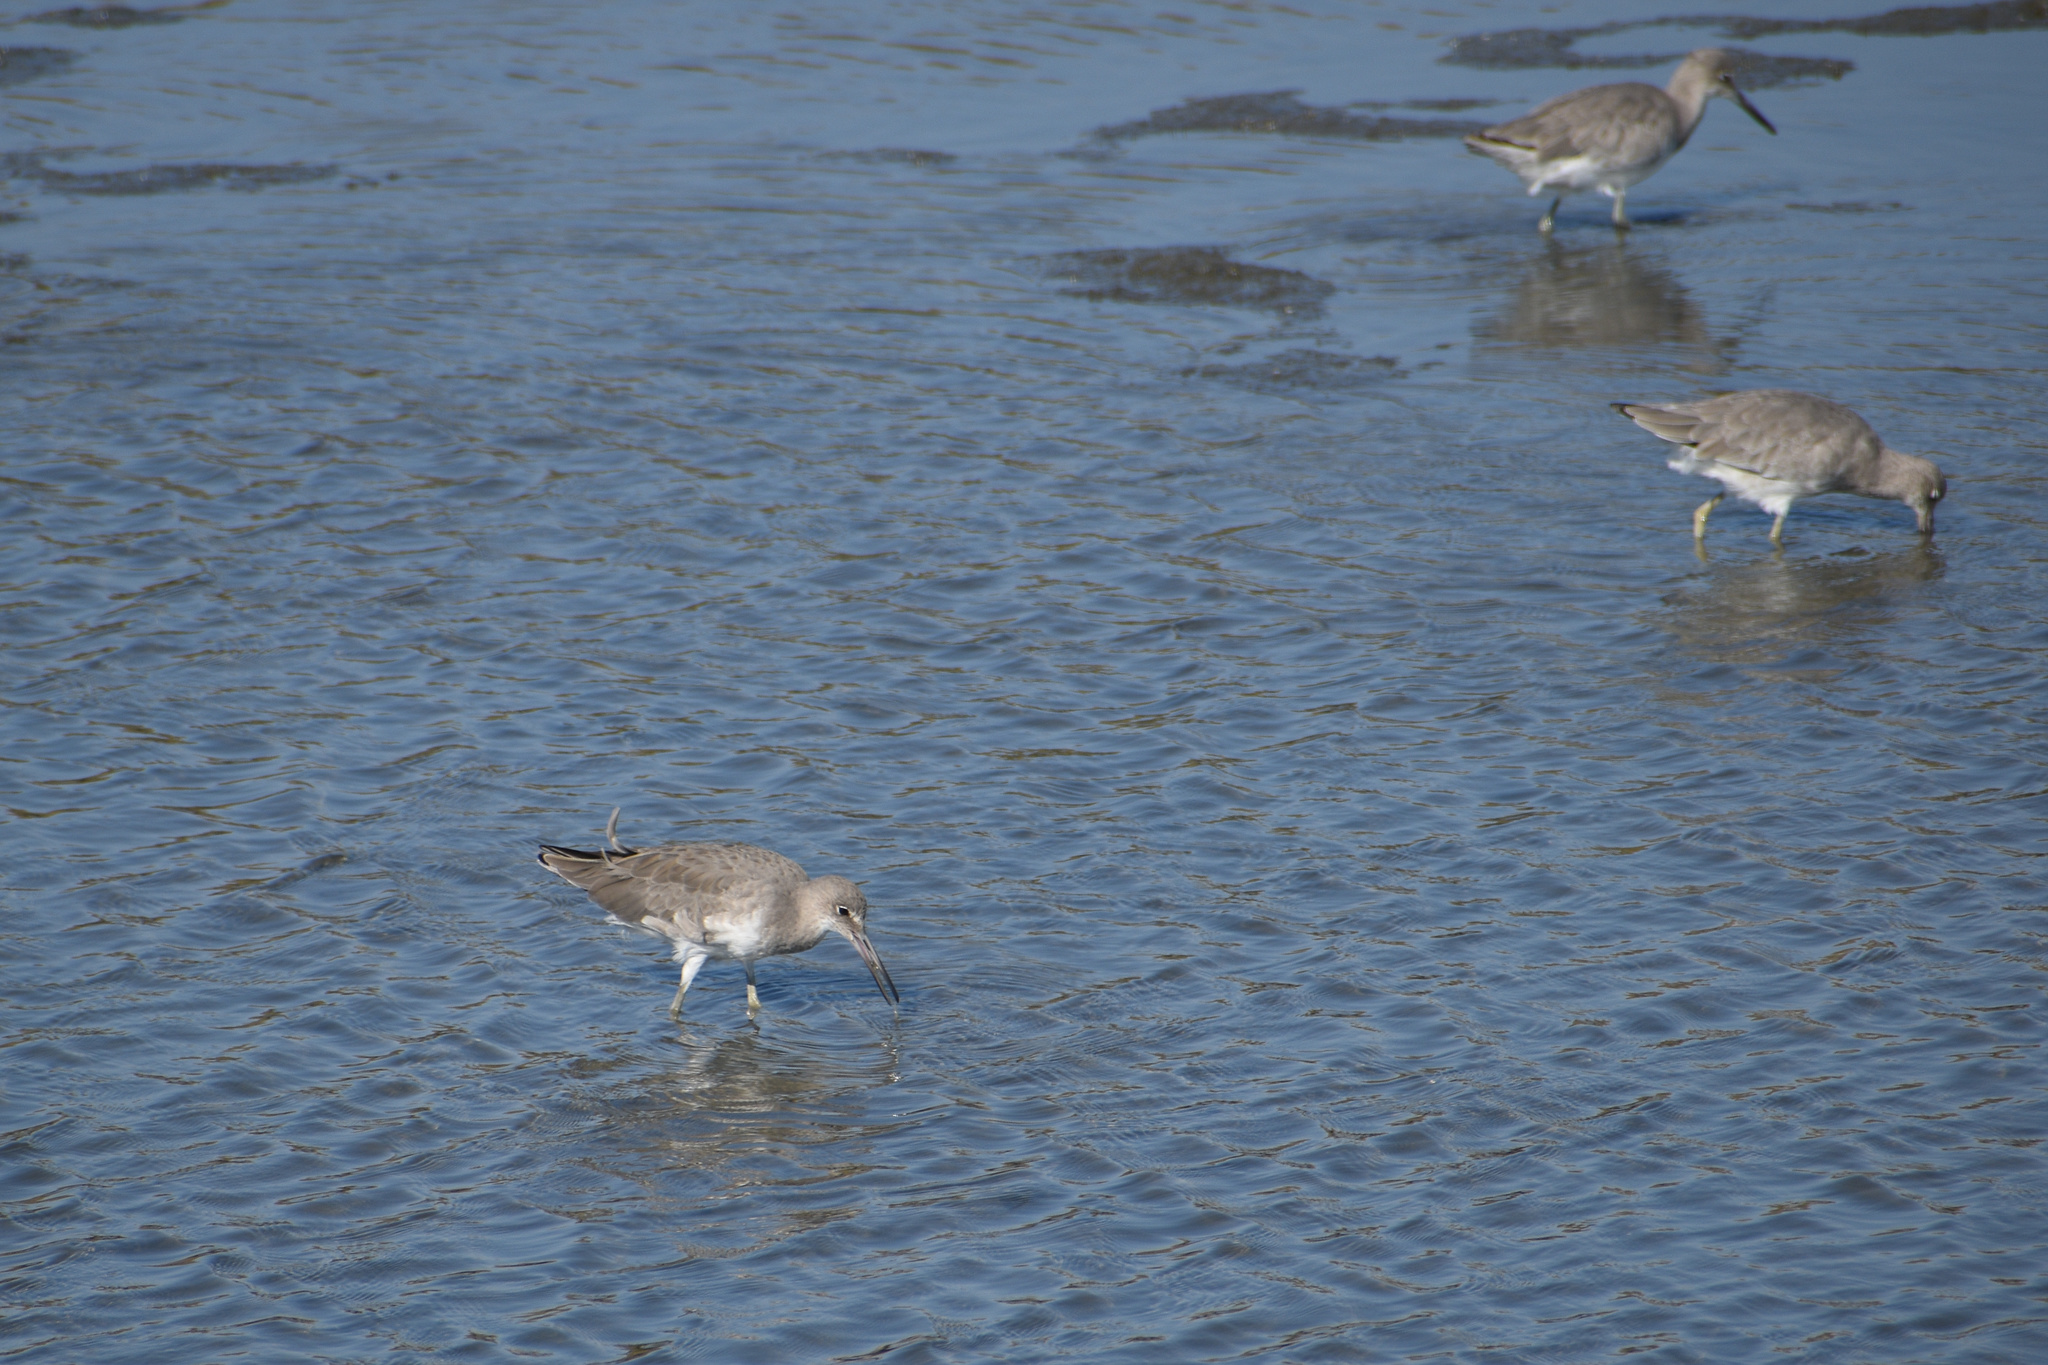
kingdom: Animalia
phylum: Chordata
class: Aves
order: Charadriiformes
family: Scolopacidae
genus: Tringa
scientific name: Tringa semipalmata
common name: Willet
